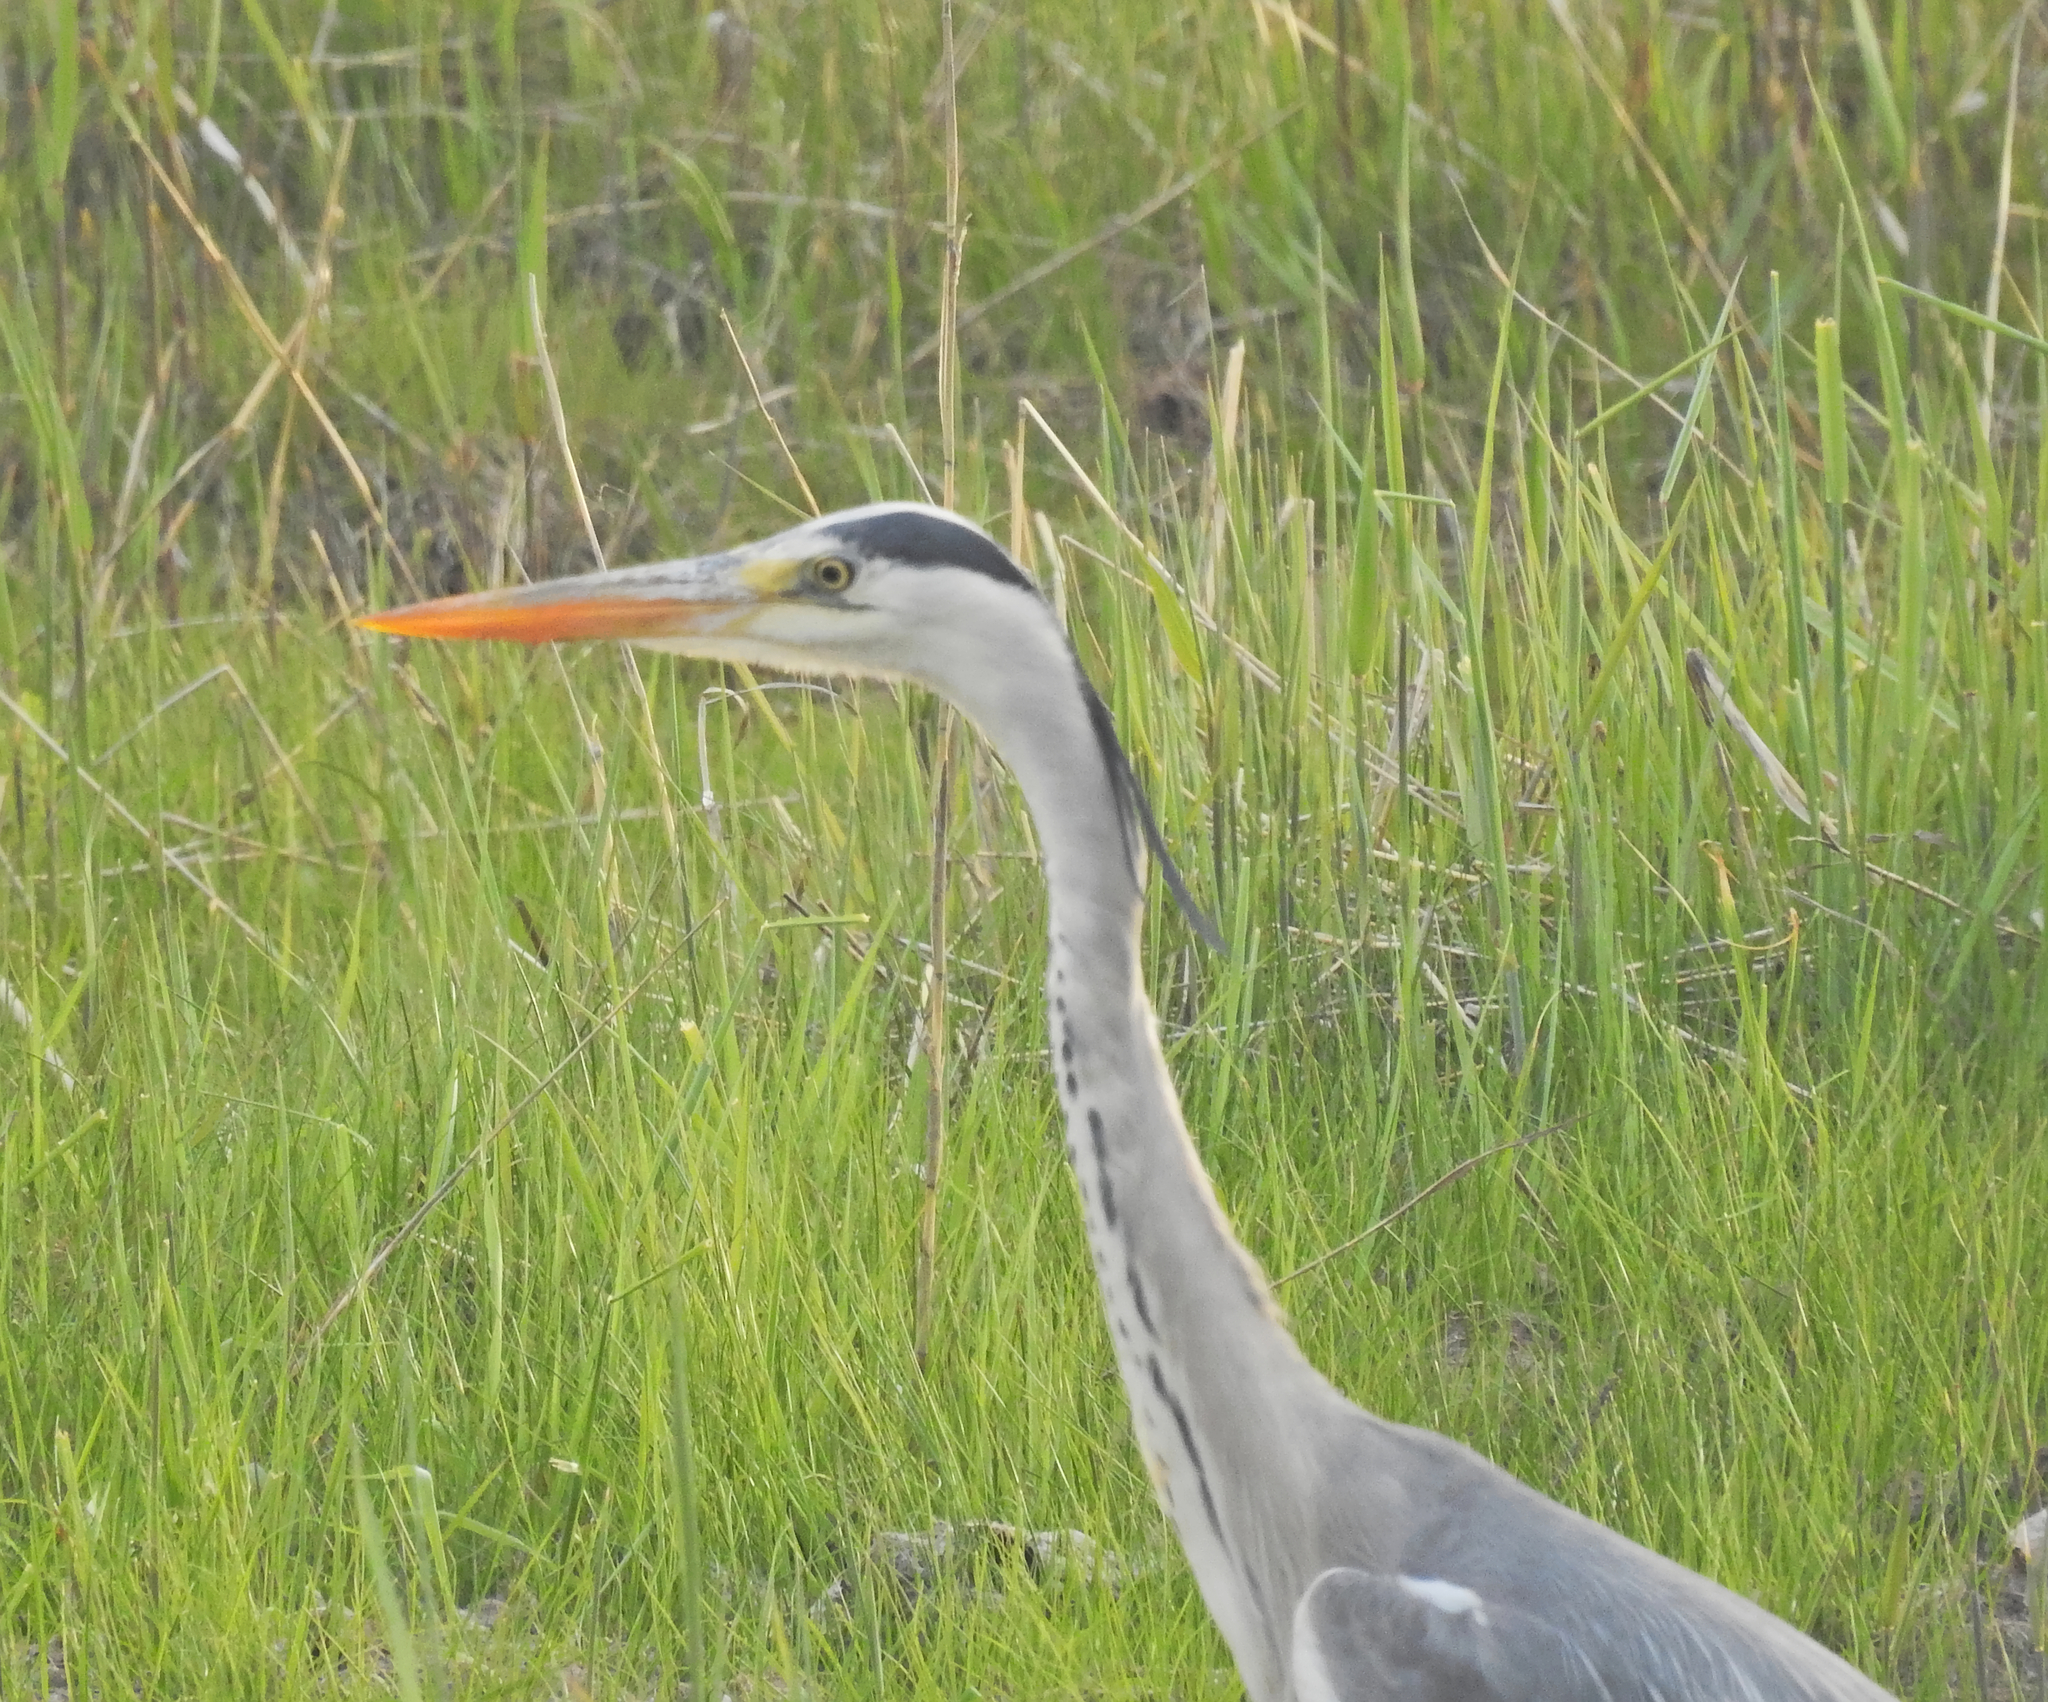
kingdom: Animalia
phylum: Chordata
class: Aves
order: Pelecaniformes
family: Ardeidae
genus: Ardea
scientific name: Ardea cinerea
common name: Grey heron
